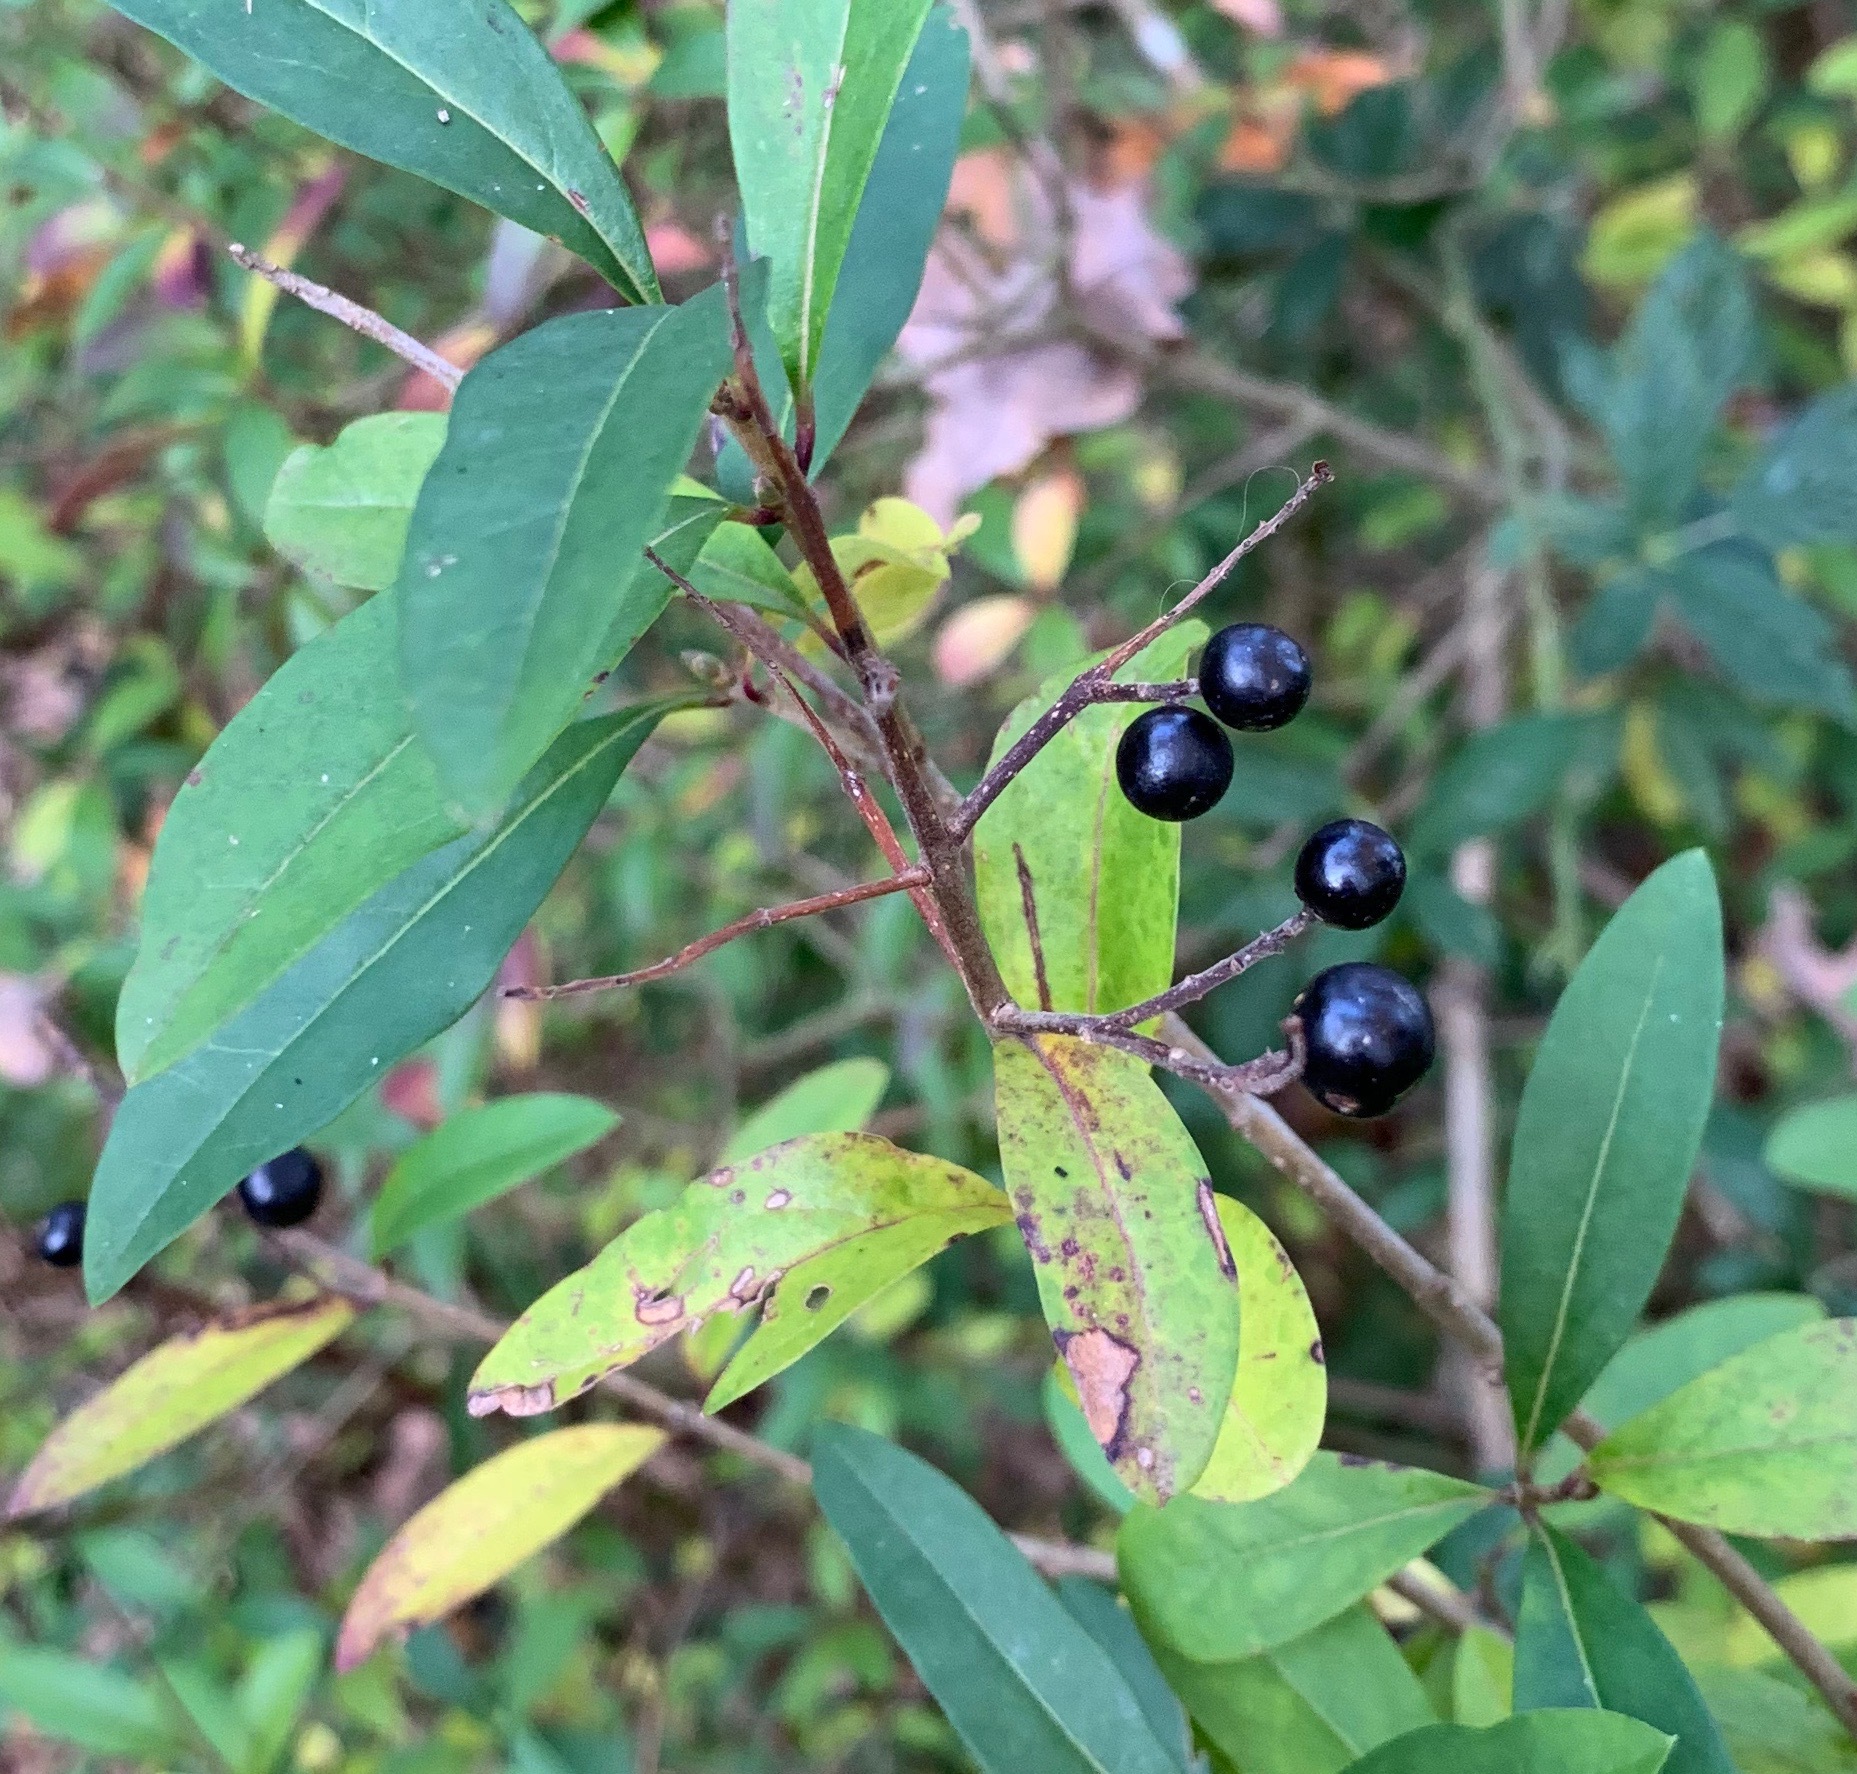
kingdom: Plantae
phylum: Tracheophyta
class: Magnoliopsida
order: Lamiales
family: Oleaceae
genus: Ligustrum
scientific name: Ligustrum vulgare
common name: Wild privet
